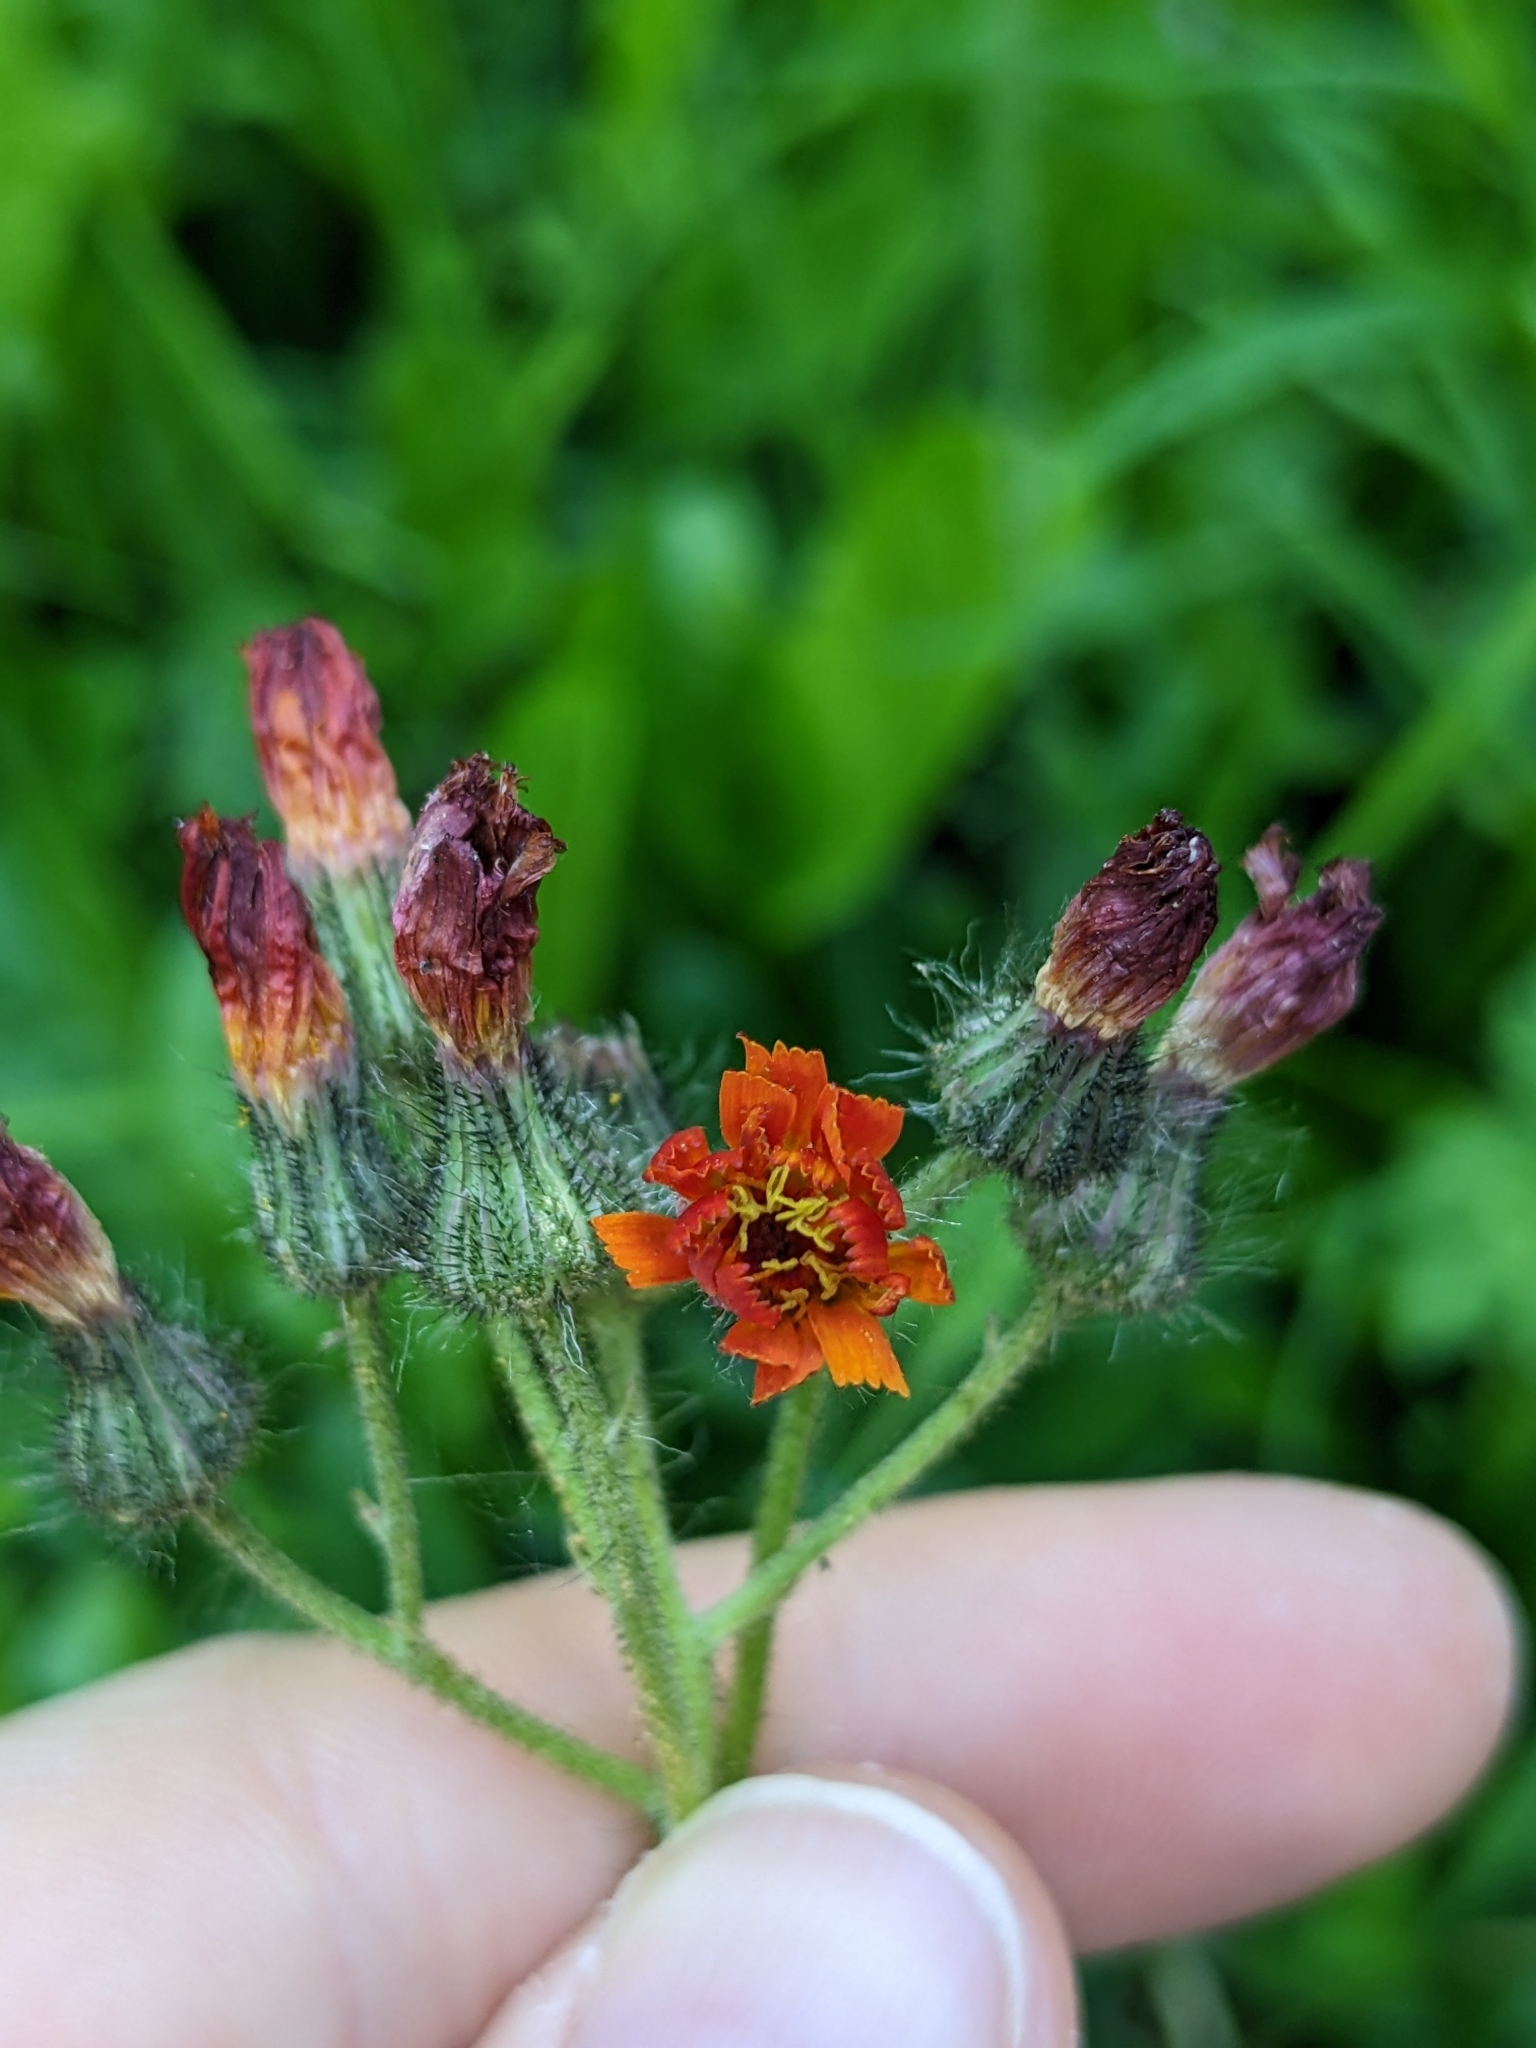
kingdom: Plantae
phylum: Tracheophyta
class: Magnoliopsida
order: Asterales
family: Asteraceae
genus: Pilosella
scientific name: Pilosella aurantiaca
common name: Fox-and-cubs
